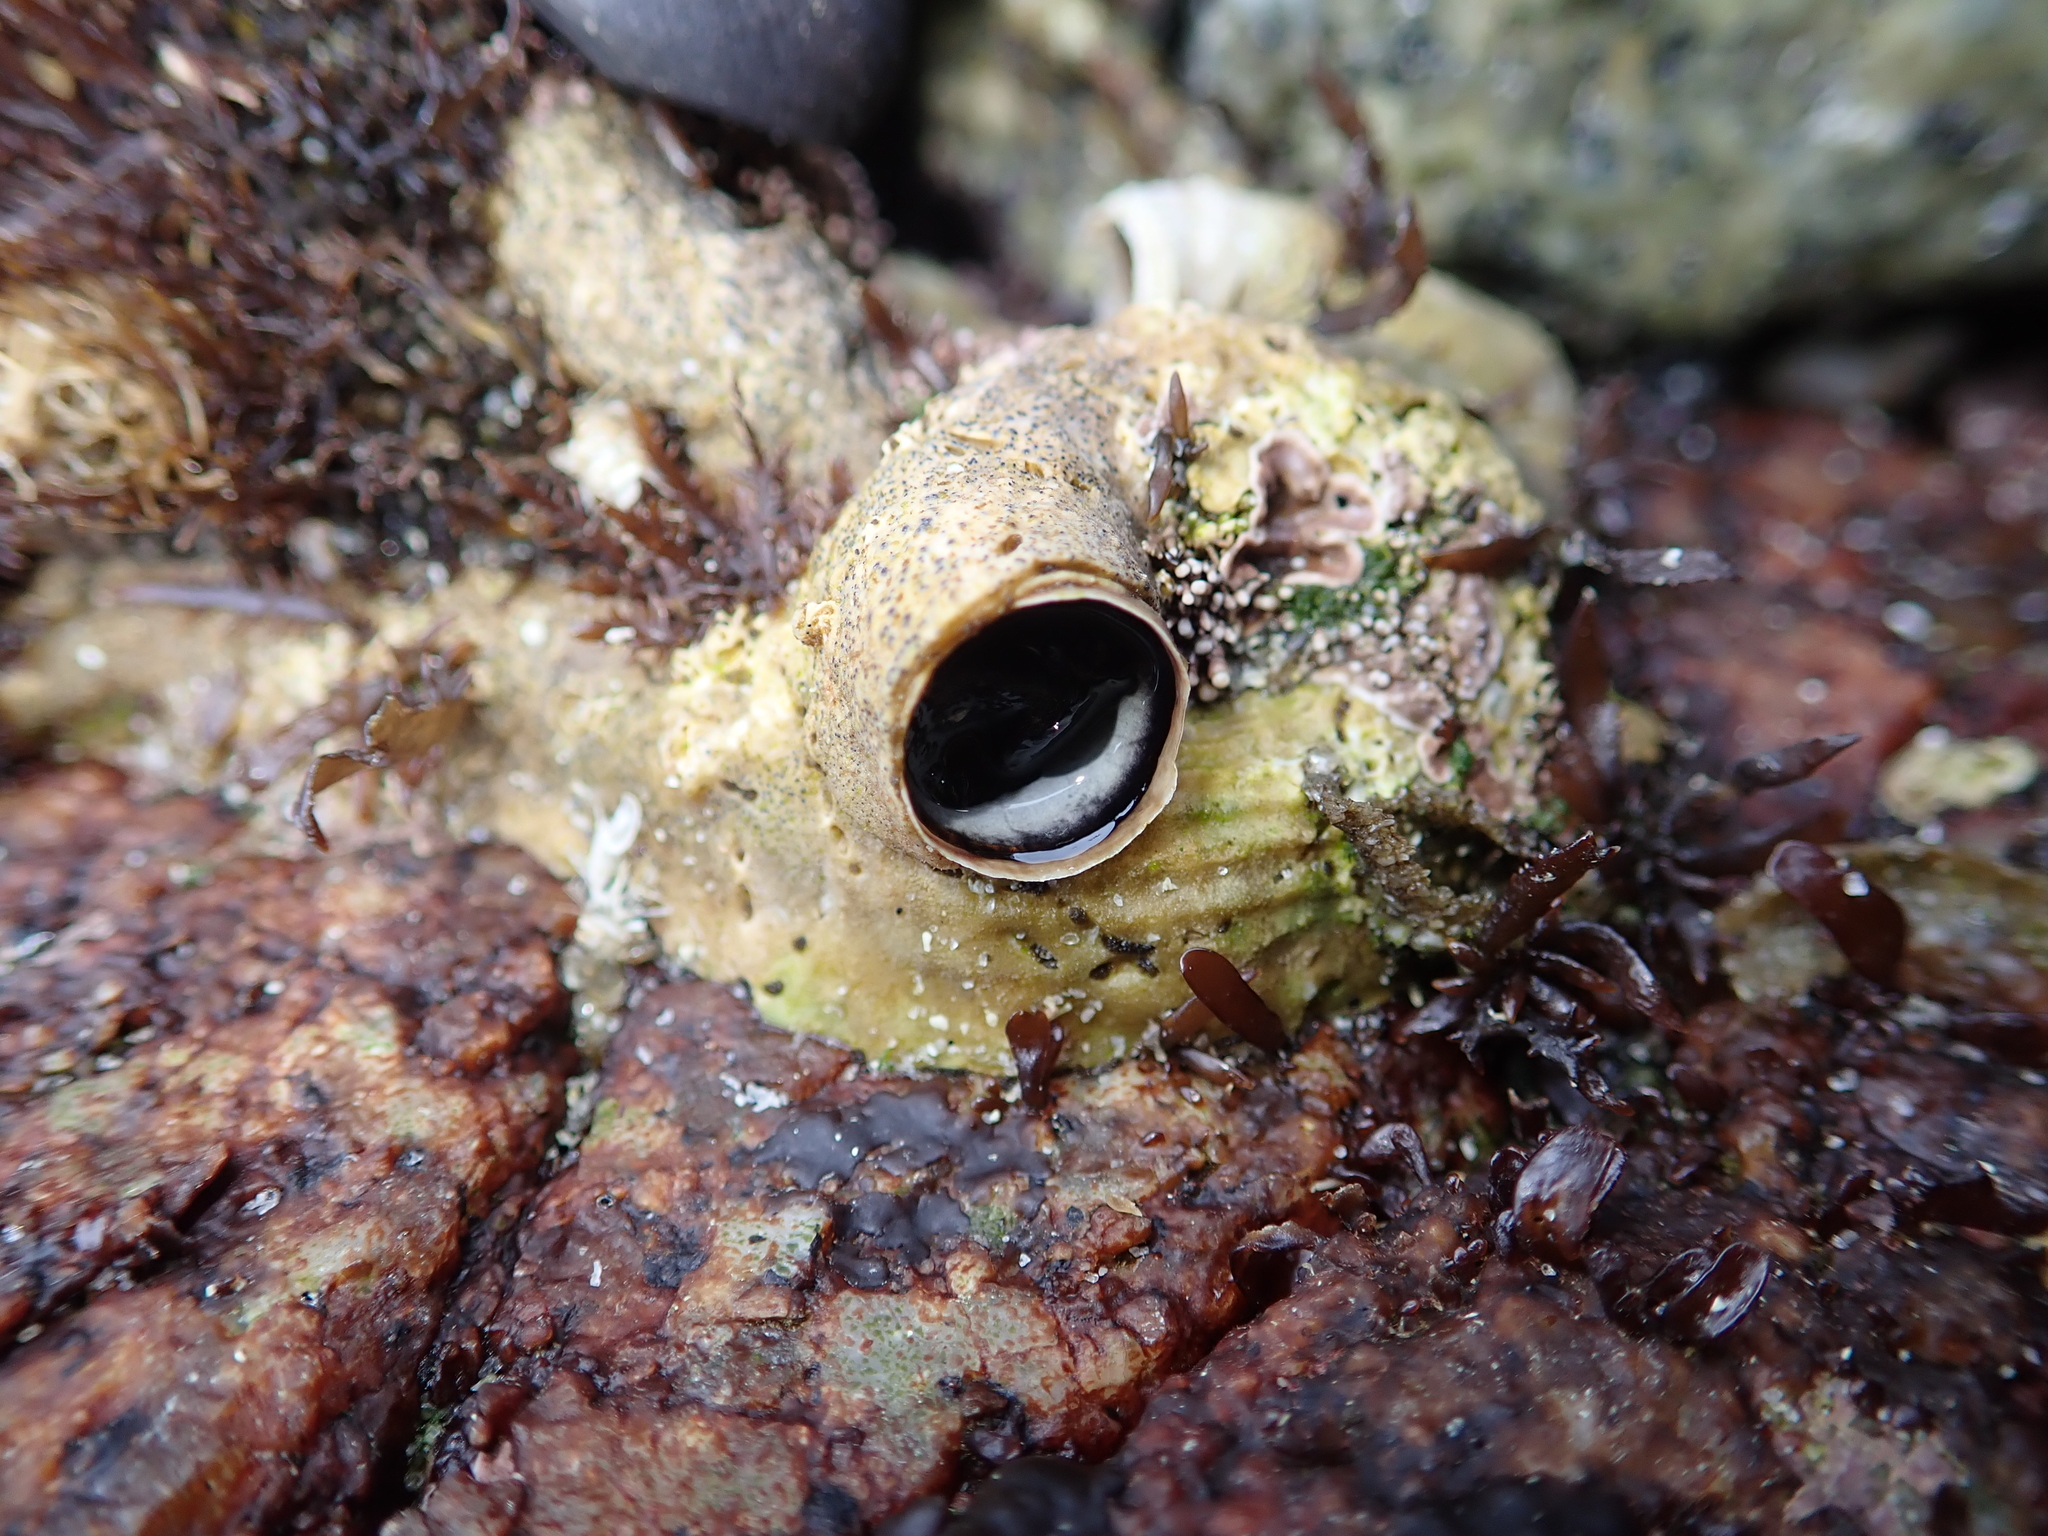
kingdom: Animalia
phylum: Mollusca
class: Gastropoda
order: Littorinimorpha
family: Vermetidae
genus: Thylacodes
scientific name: Thylacodes squamigerus
